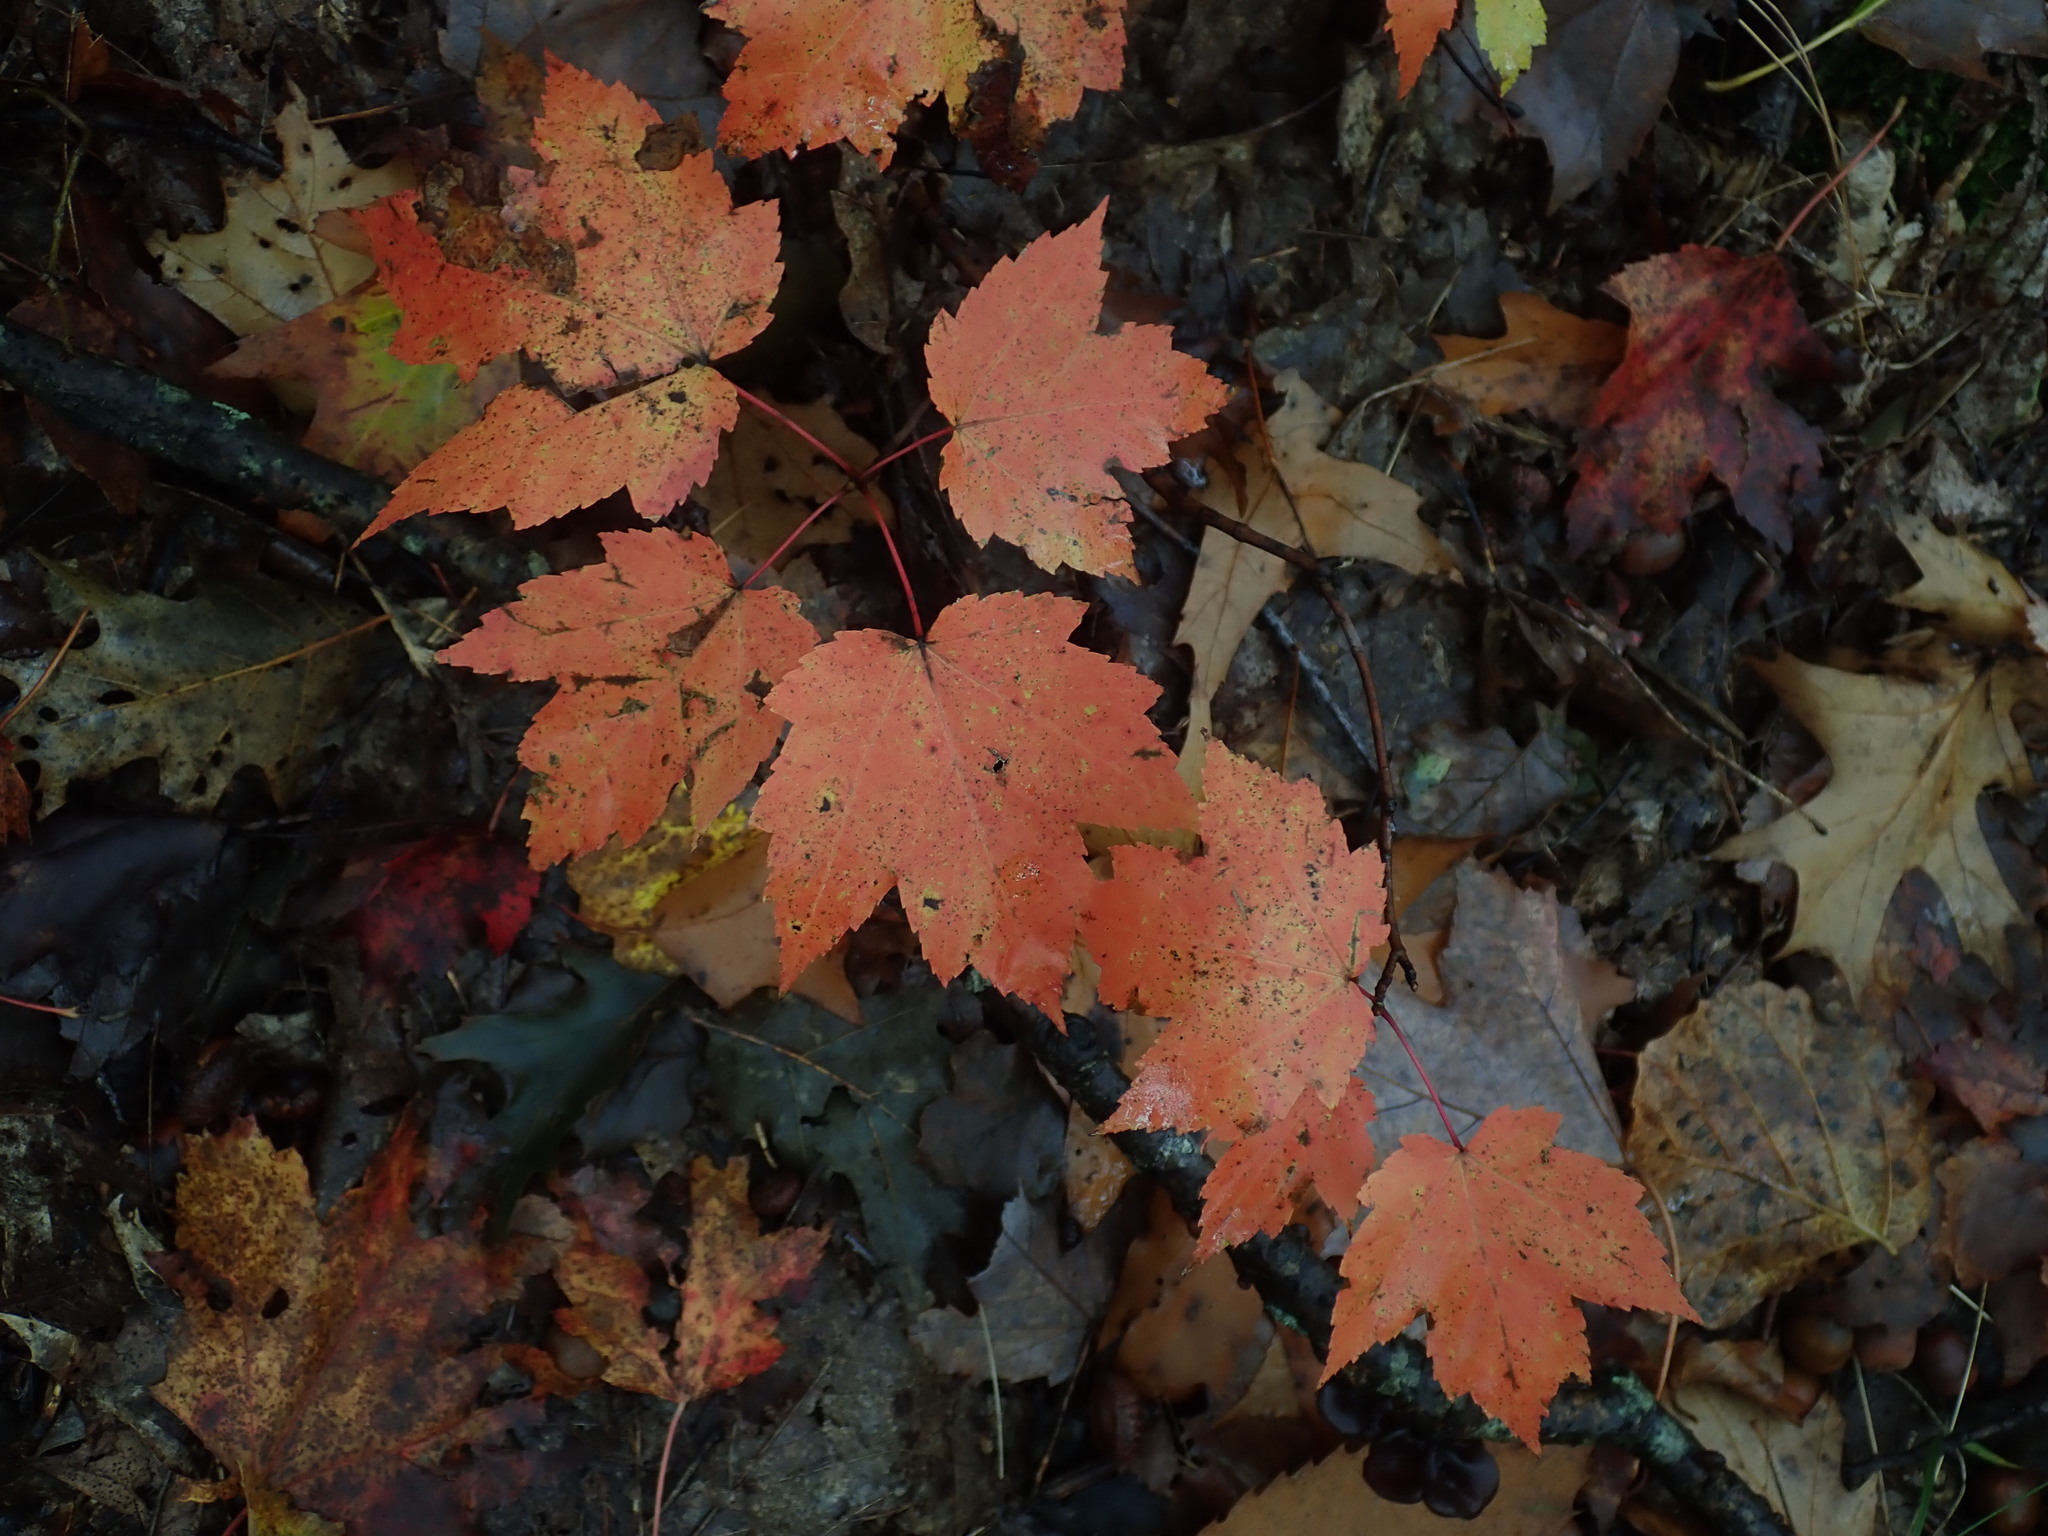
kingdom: Plantae
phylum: Tracheophyta
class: Magnoliopsida
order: Sapindales
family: Sapindaceae
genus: Acer
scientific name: Acer rubrum
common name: Red maple
